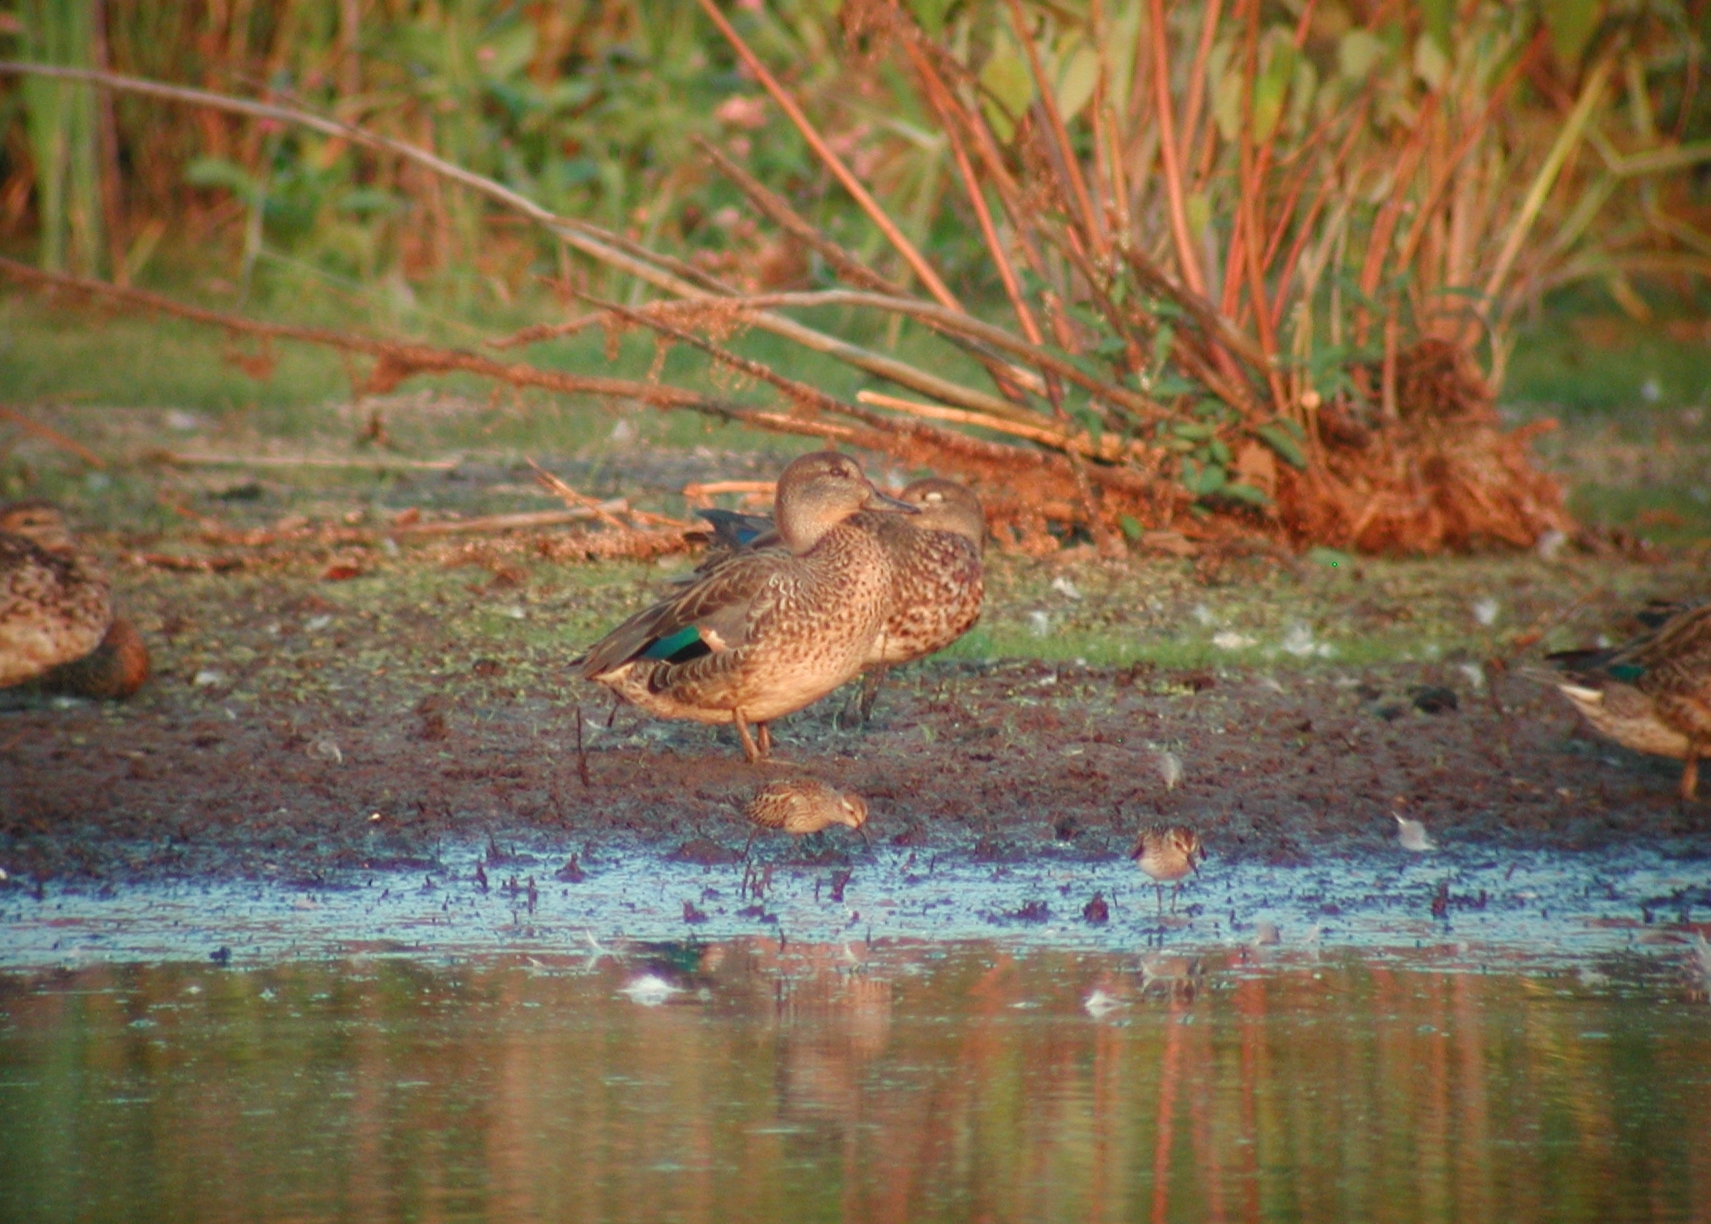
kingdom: Animalia
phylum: Chordata
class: Aves
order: Anseriformes
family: Anatidae
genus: Anas
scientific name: Anas crecca
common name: Eurasian teal
